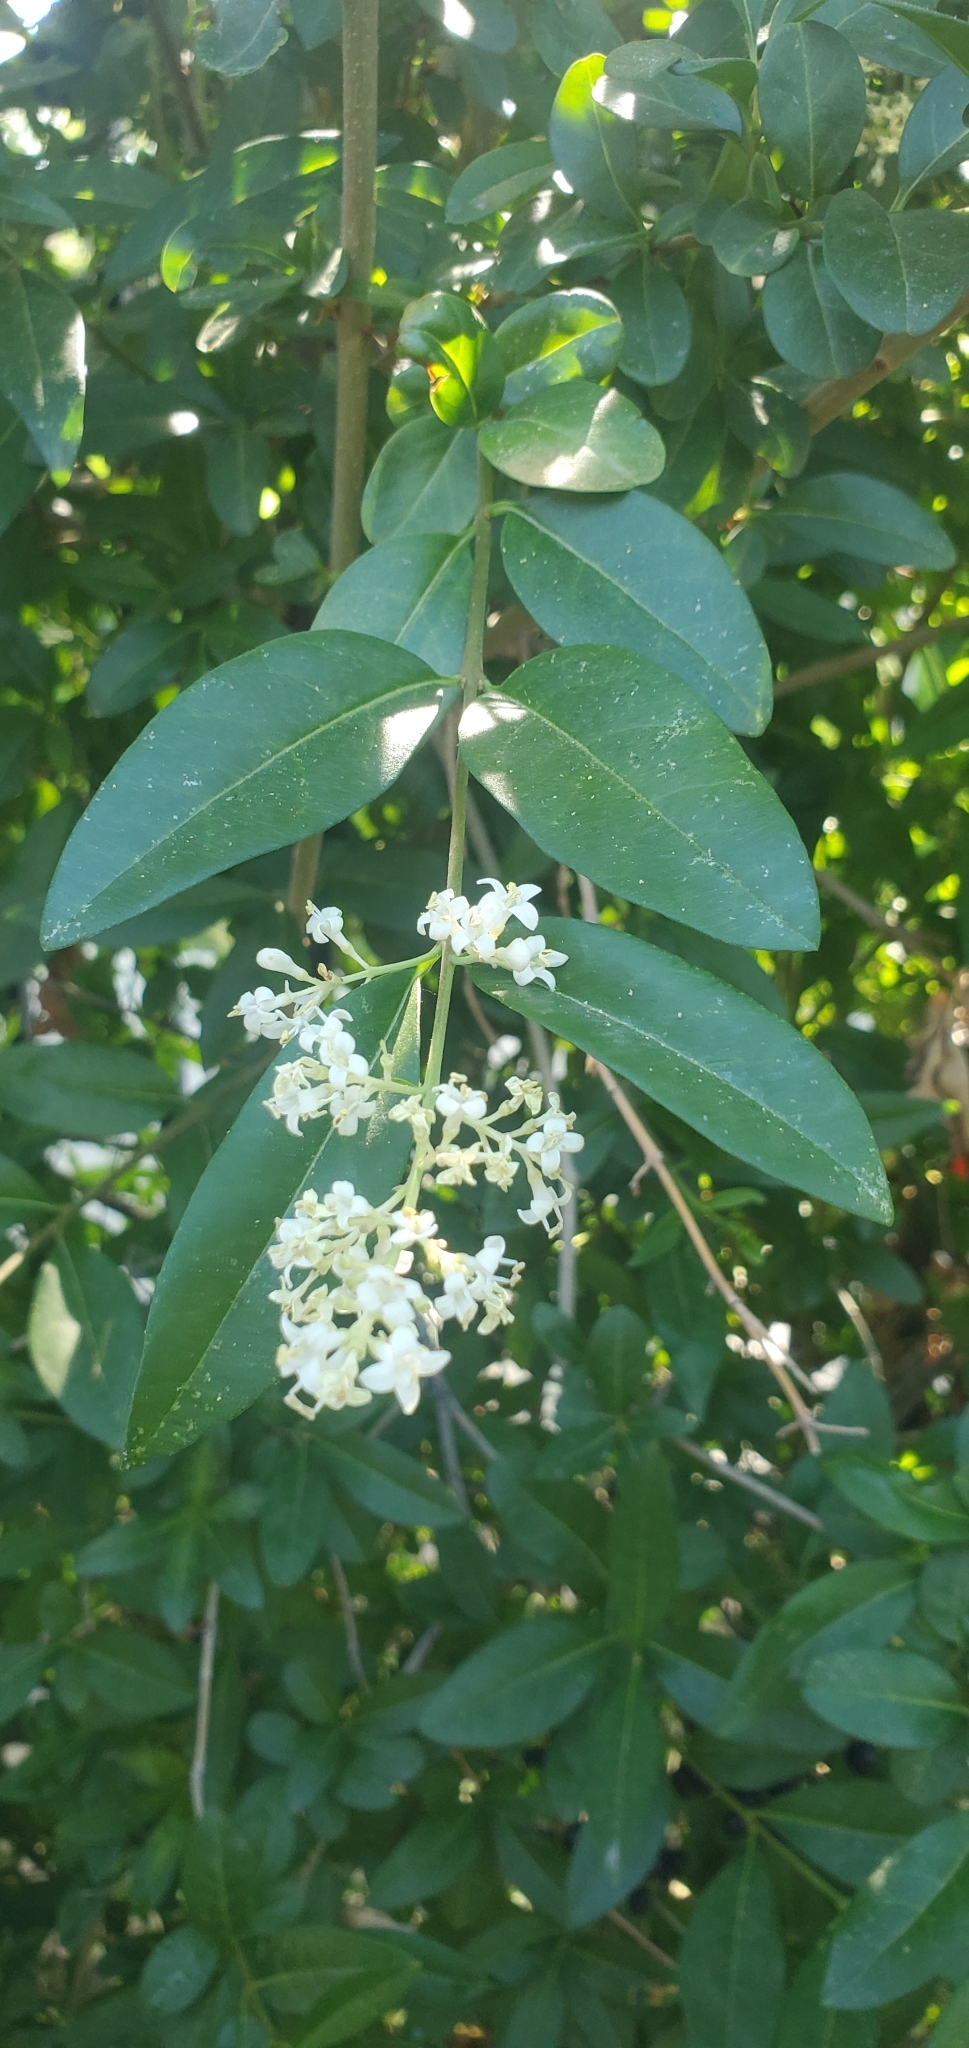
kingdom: Plantae
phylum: Tracheophyta
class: Magnoliopsida
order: Lamiales
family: Oleaceae
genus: Ligustrum
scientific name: Ligustrum
